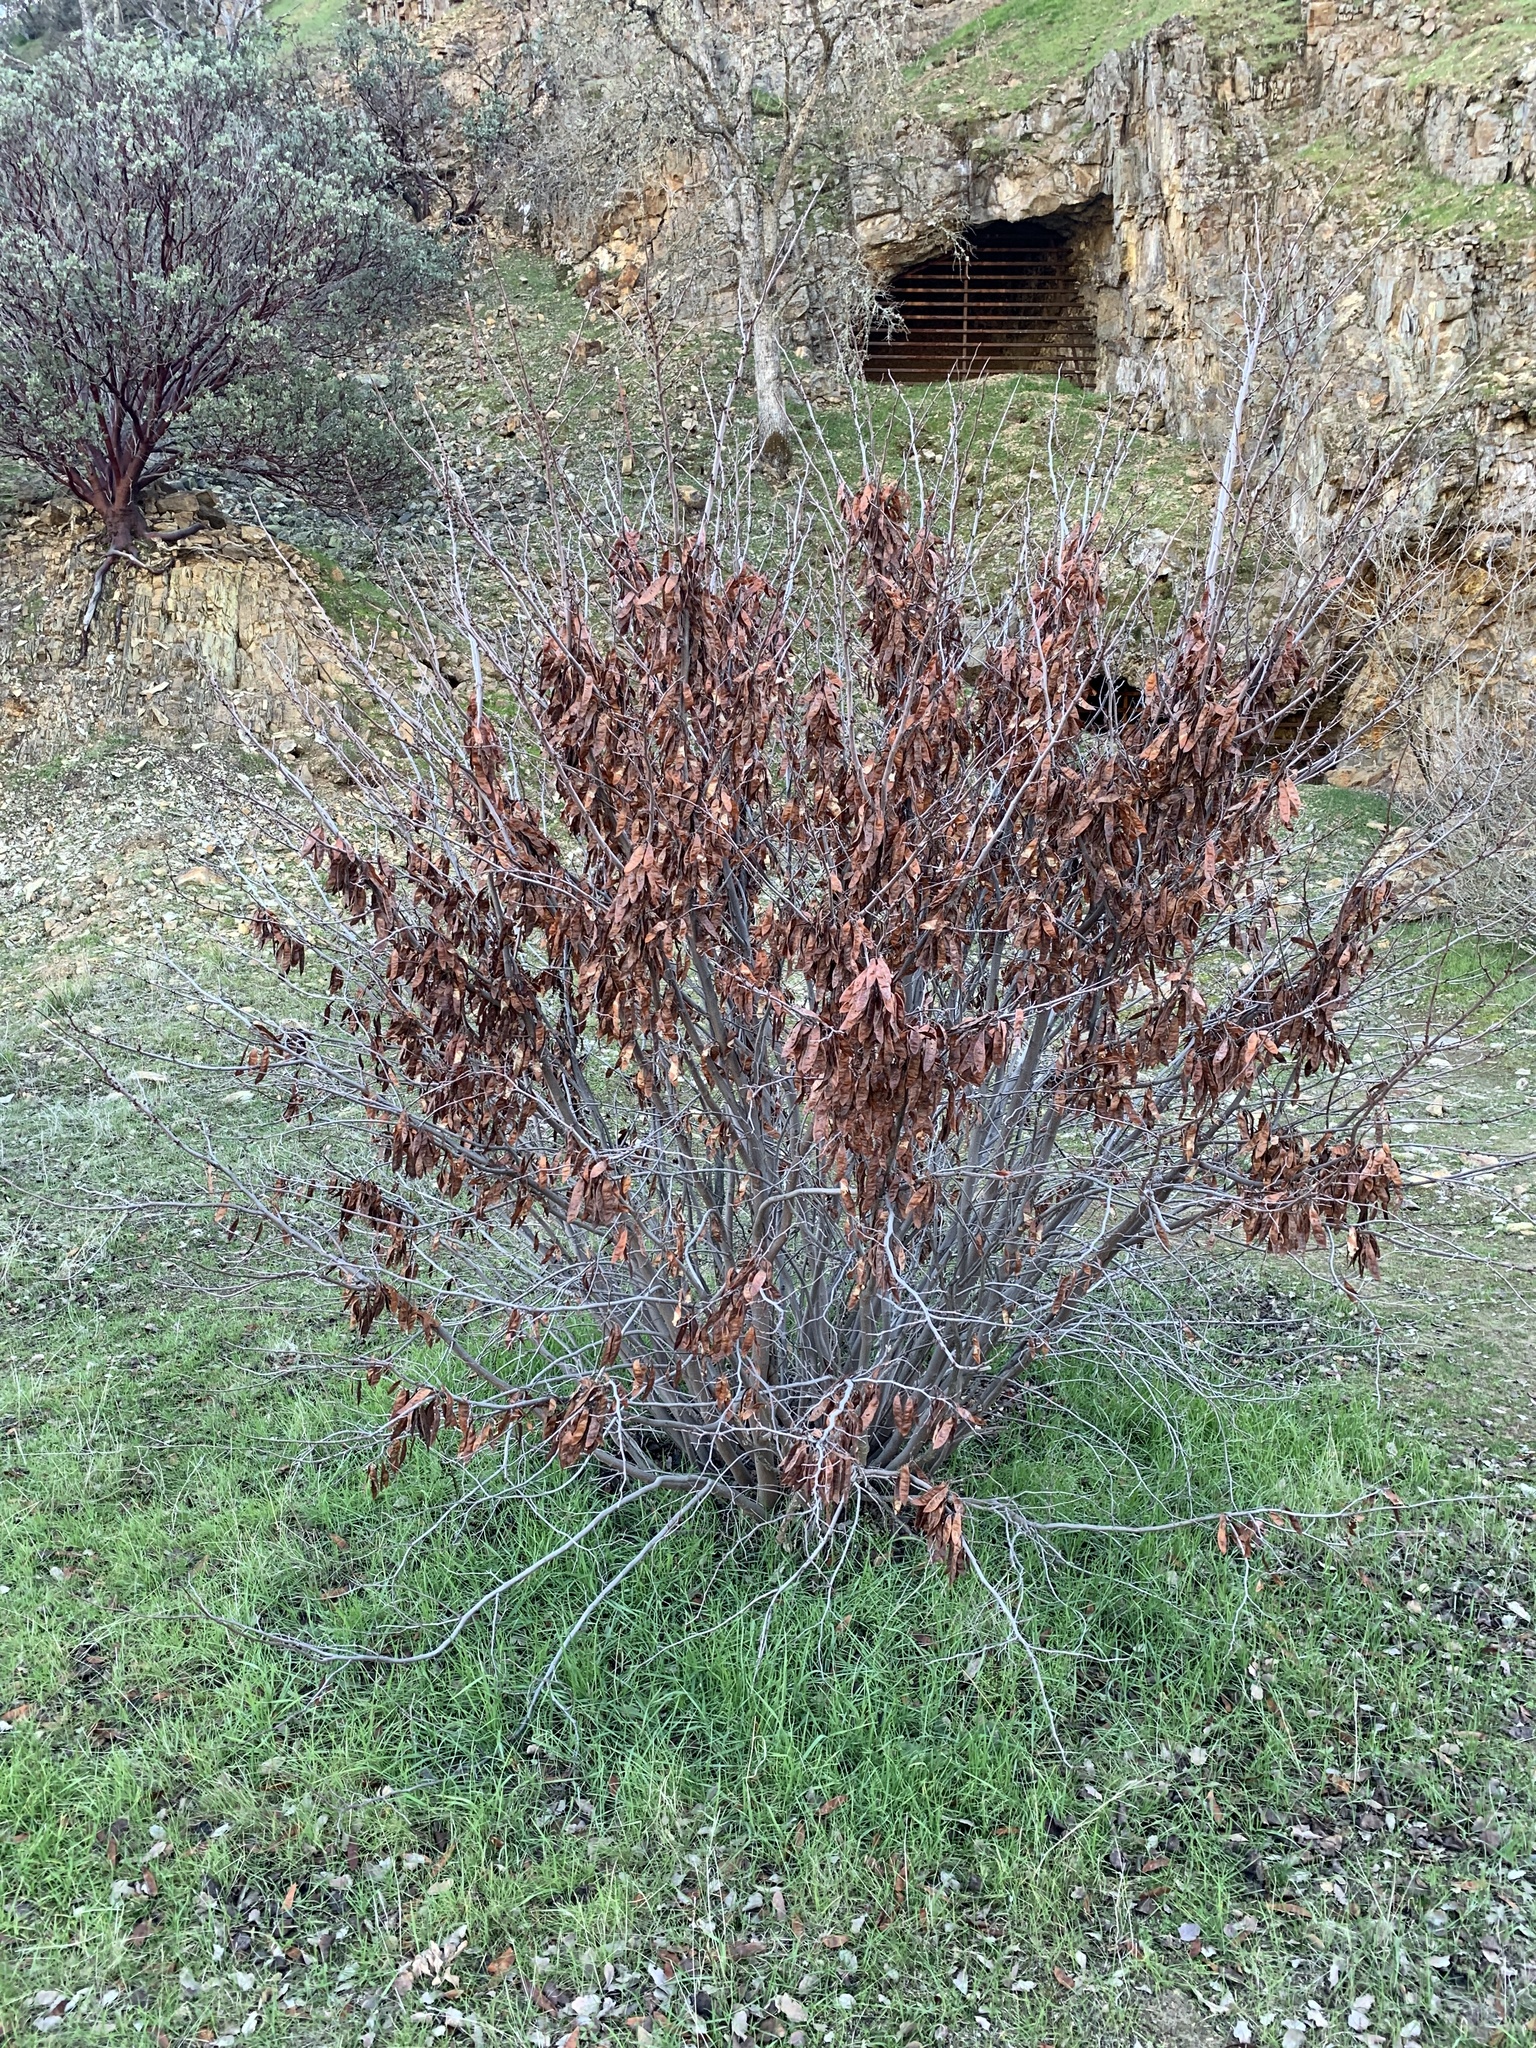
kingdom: Plantae
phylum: Tracheophyta
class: Magnoliopsida
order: Fabales
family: Fabaceae
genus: Cercis
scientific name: Cercis occidentalis
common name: California redbud
